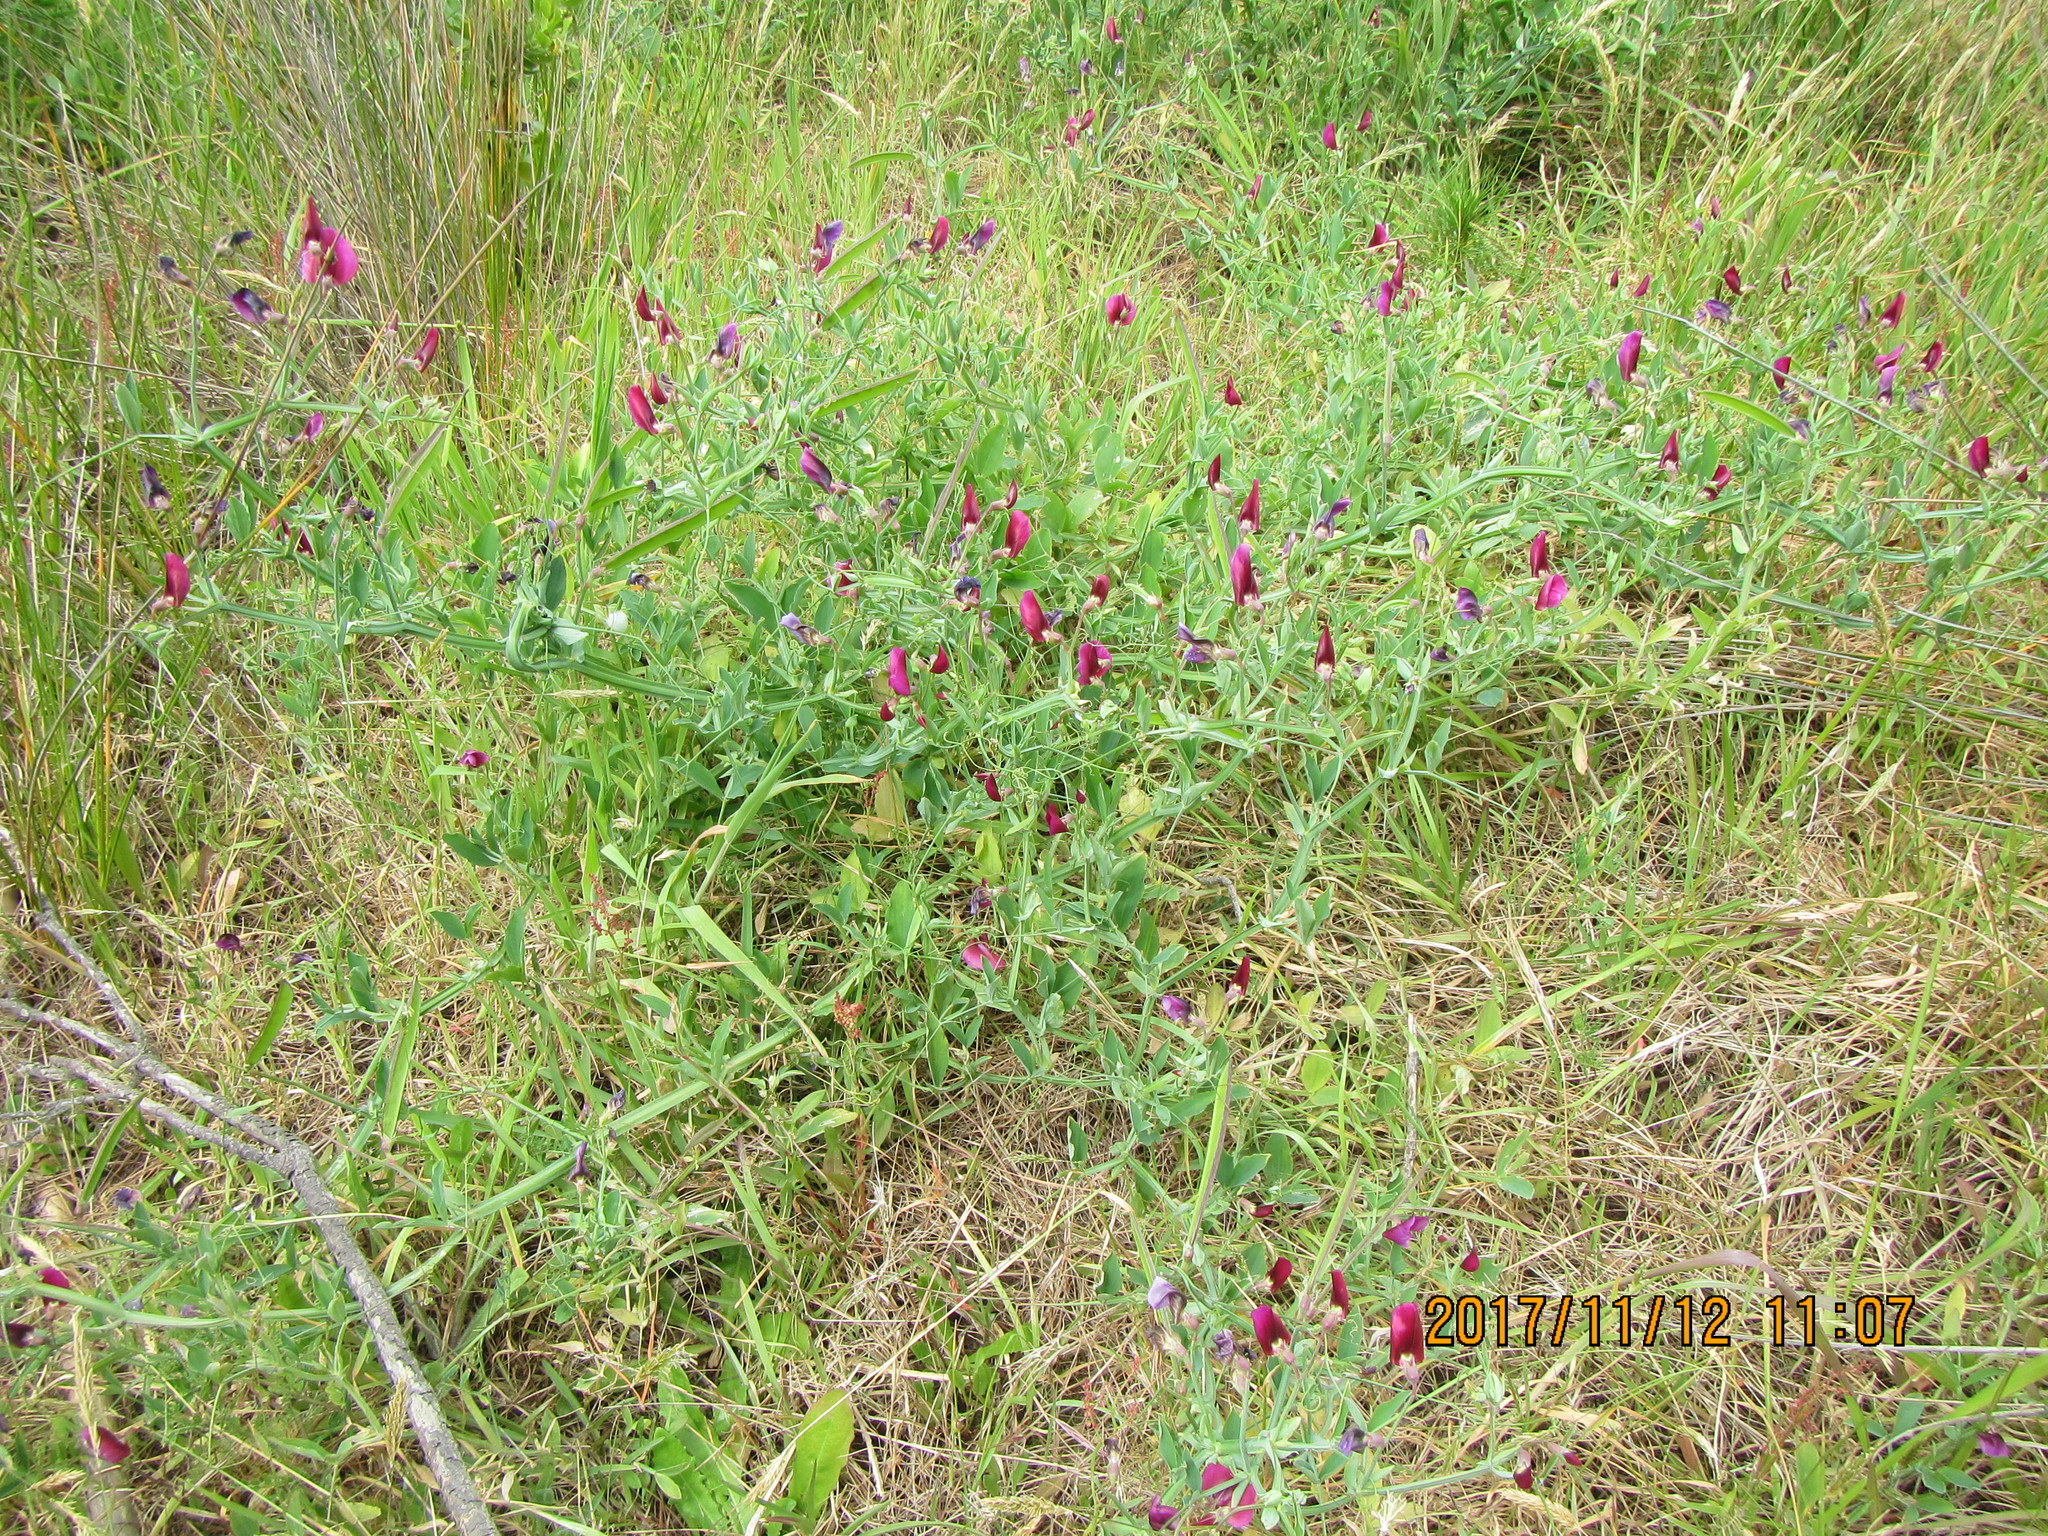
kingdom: Plantae
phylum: Tracheophyta
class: Magnoliopsida
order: Fabales
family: Fabaceae
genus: Lathyrus
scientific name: Lathyrus odoratus
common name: Sweet pea
